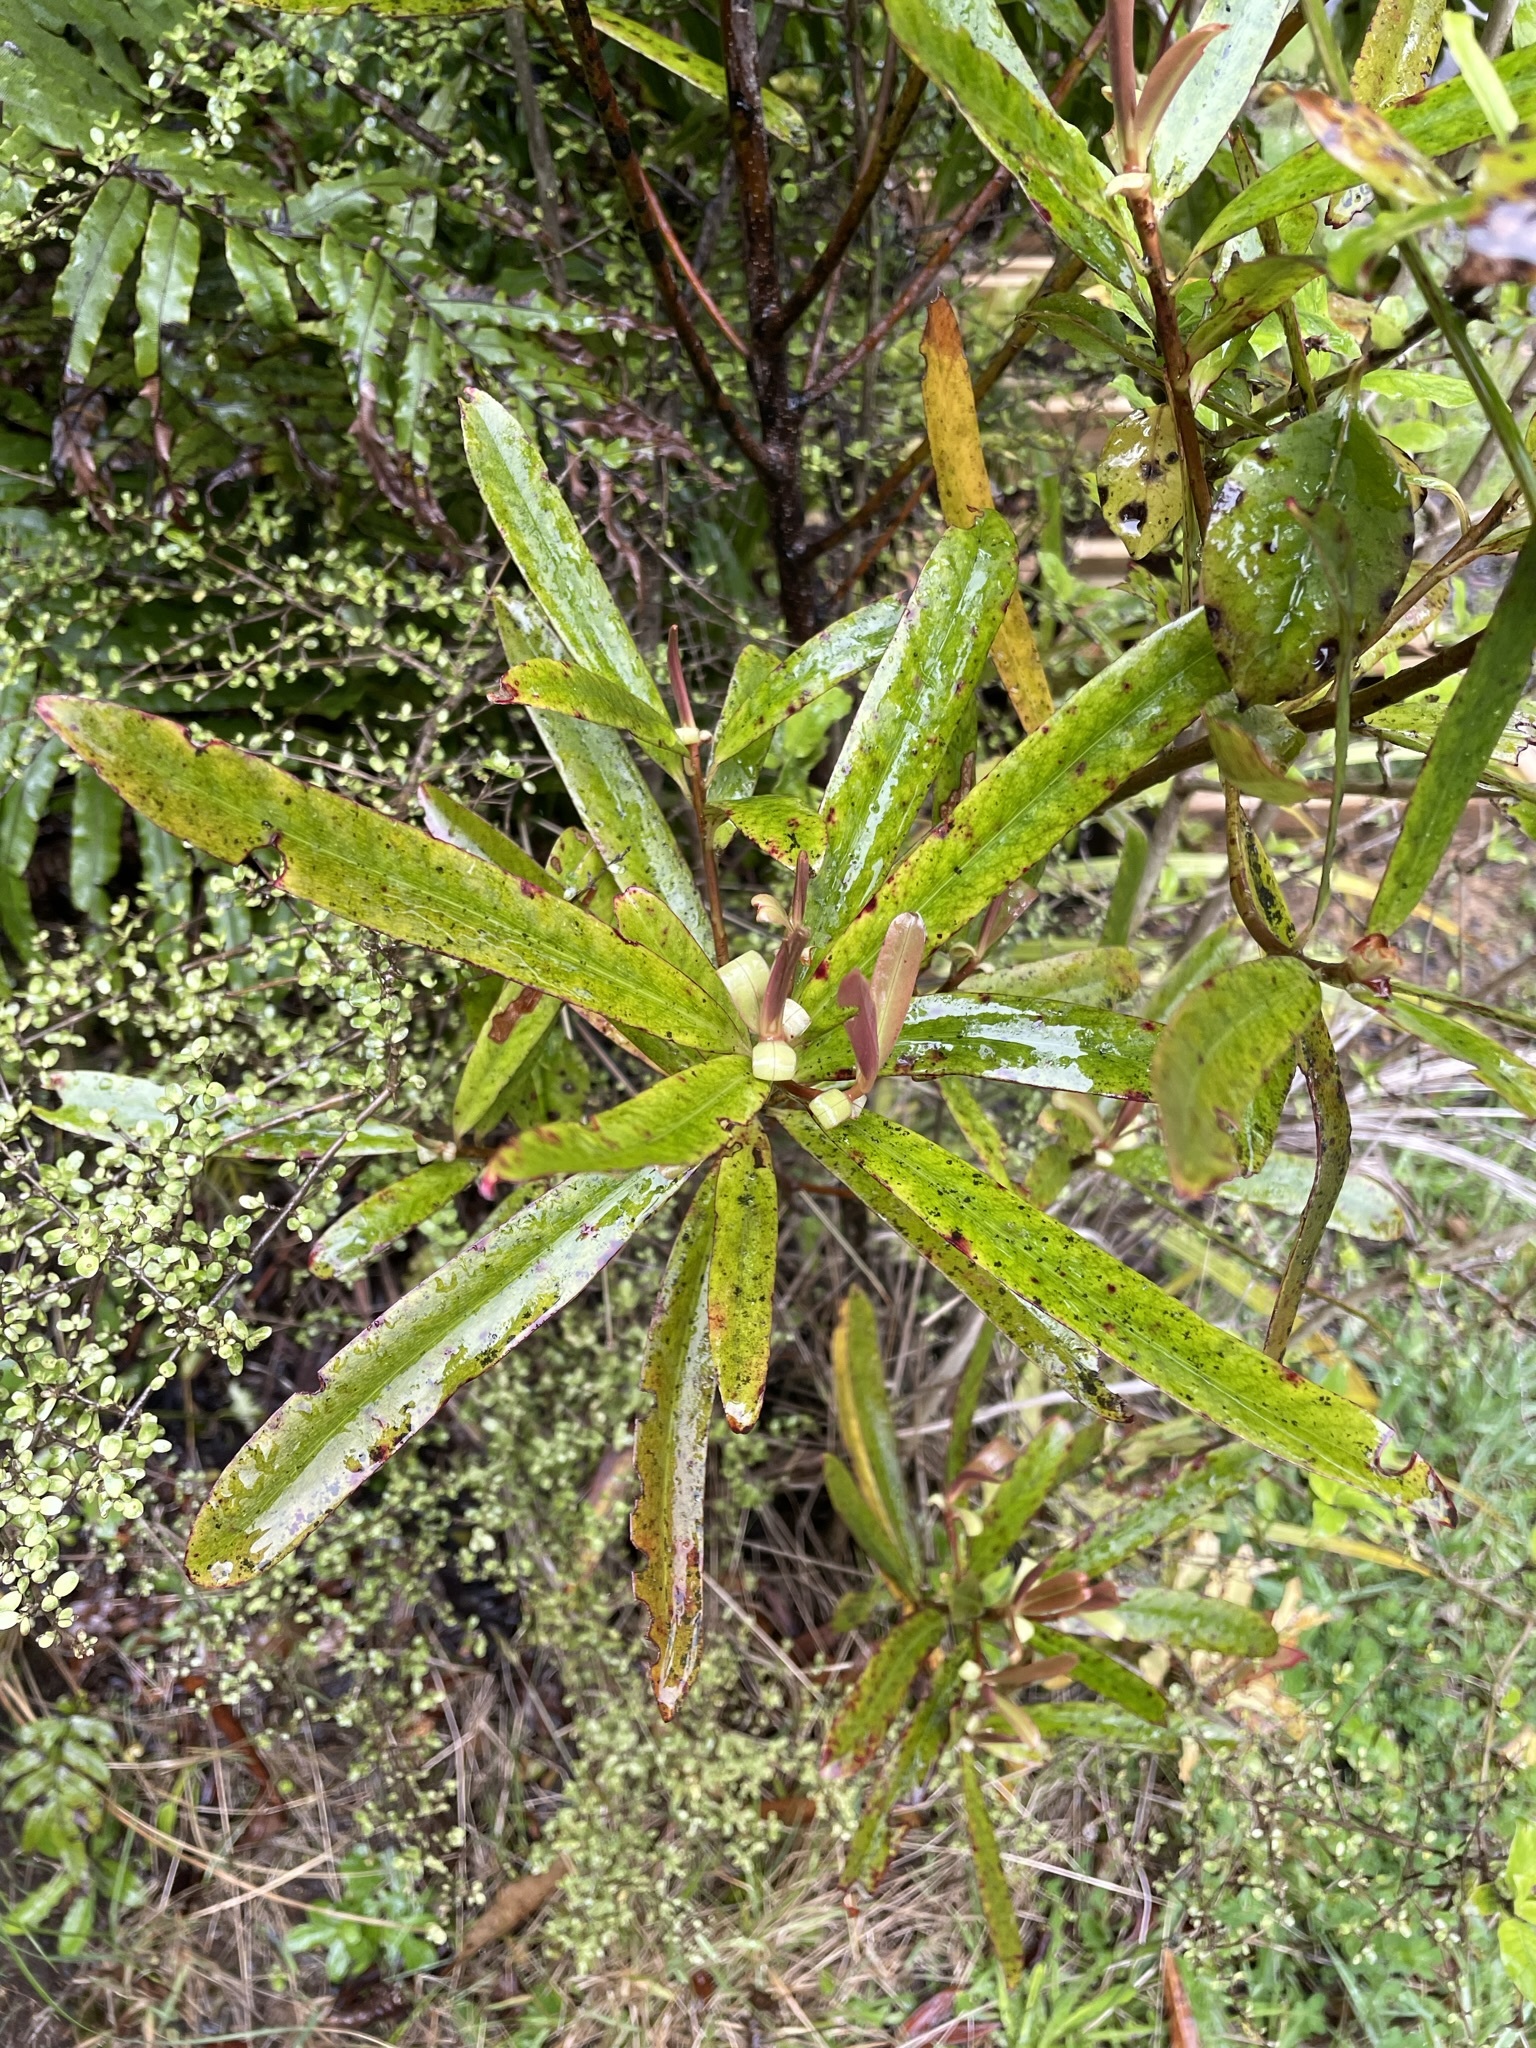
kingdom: Plantae
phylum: Tracheophyta
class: Magnoliopsida
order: Ericales
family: Primulaceae
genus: Myrsine
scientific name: Myrsine salicina
